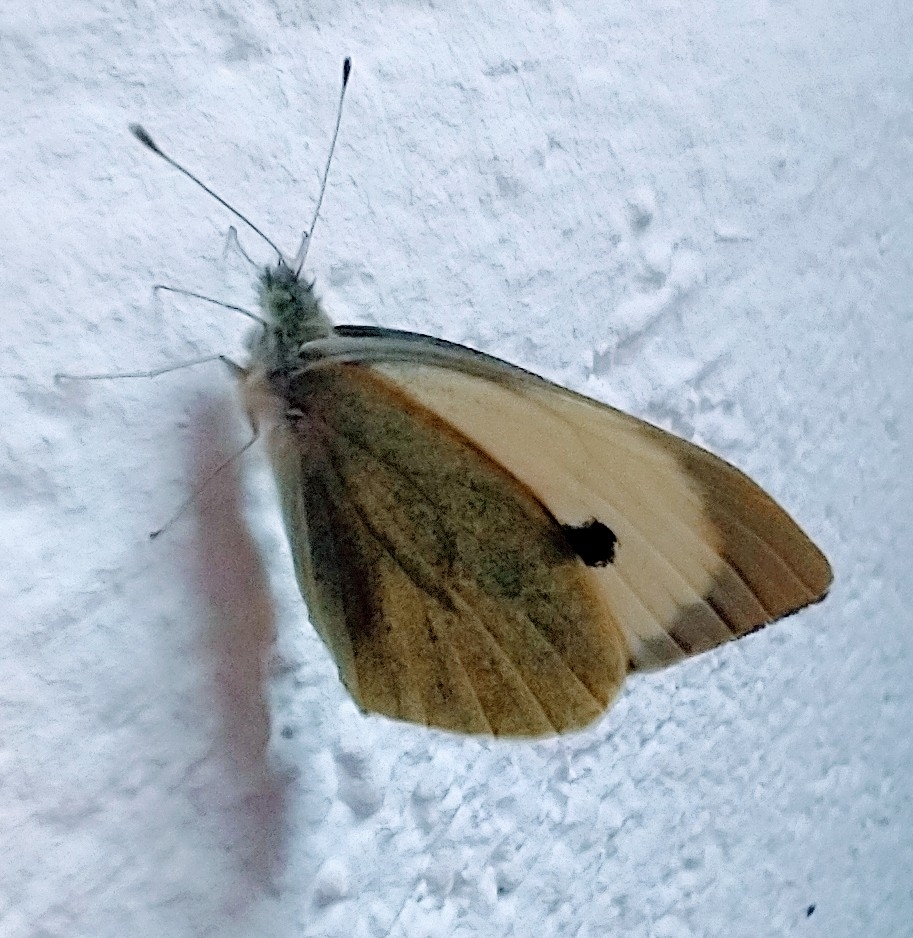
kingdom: Animalia
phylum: Arthropoda
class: Insecta
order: Lepidoptera
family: Pieridae
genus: Pieris
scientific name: Pieris brassicae
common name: Large white
